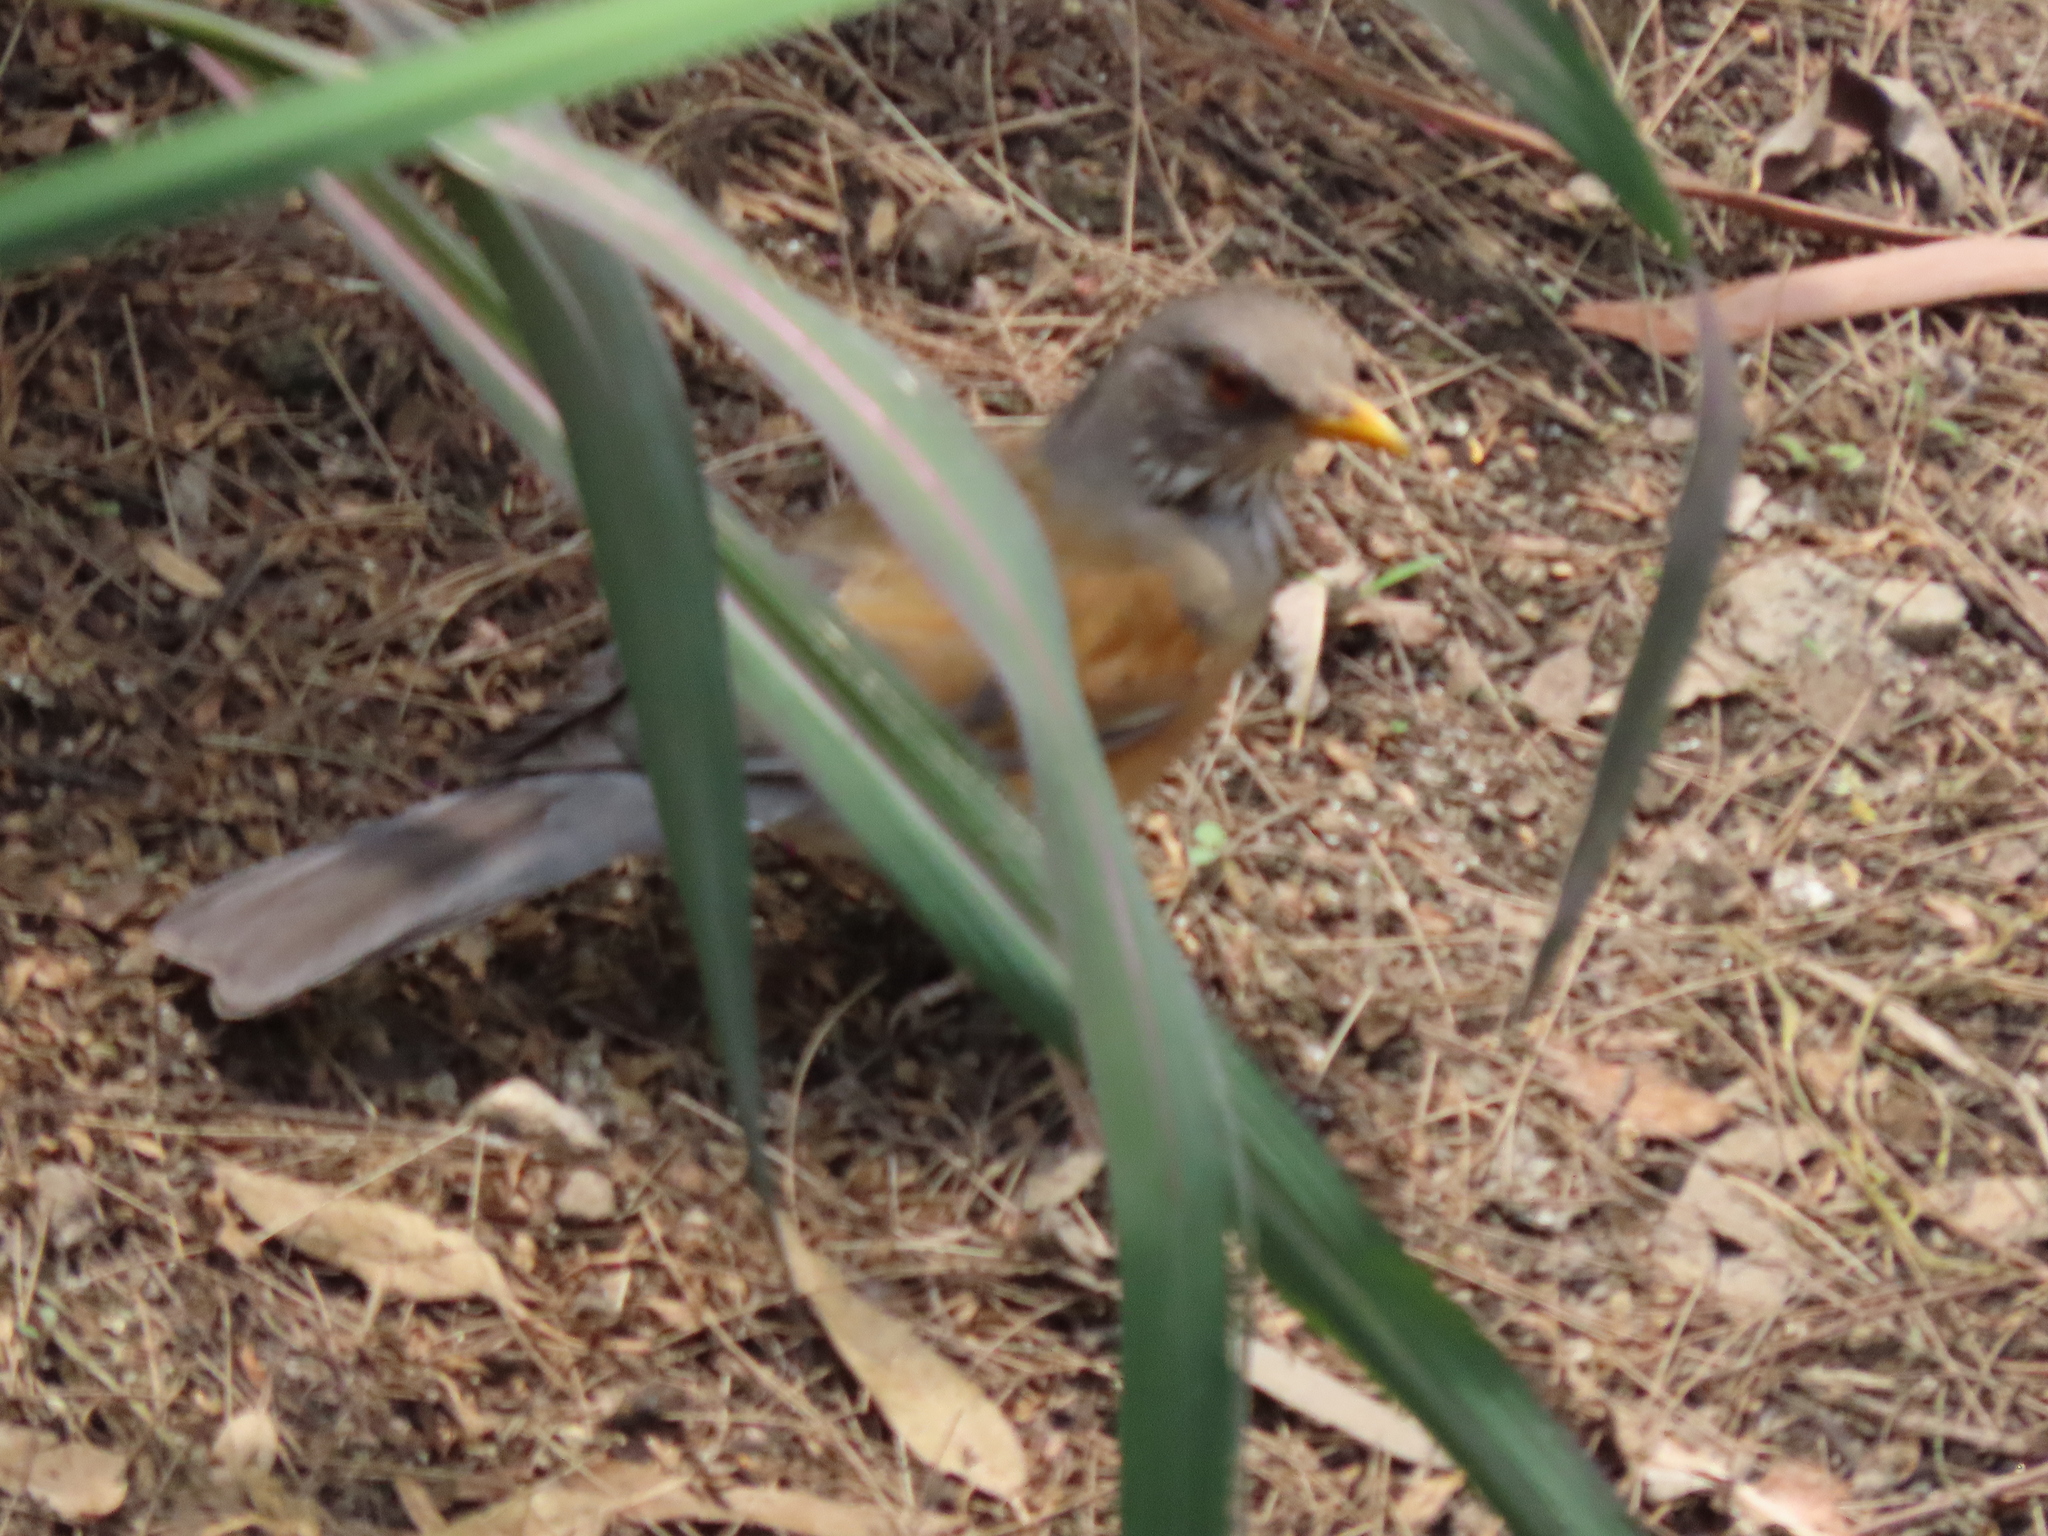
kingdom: Animalia
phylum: Chordata
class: Aves
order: Passeriformes
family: Turdidae
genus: Turdus
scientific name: Turdus rufopalliatus
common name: Rufous-backed robin
